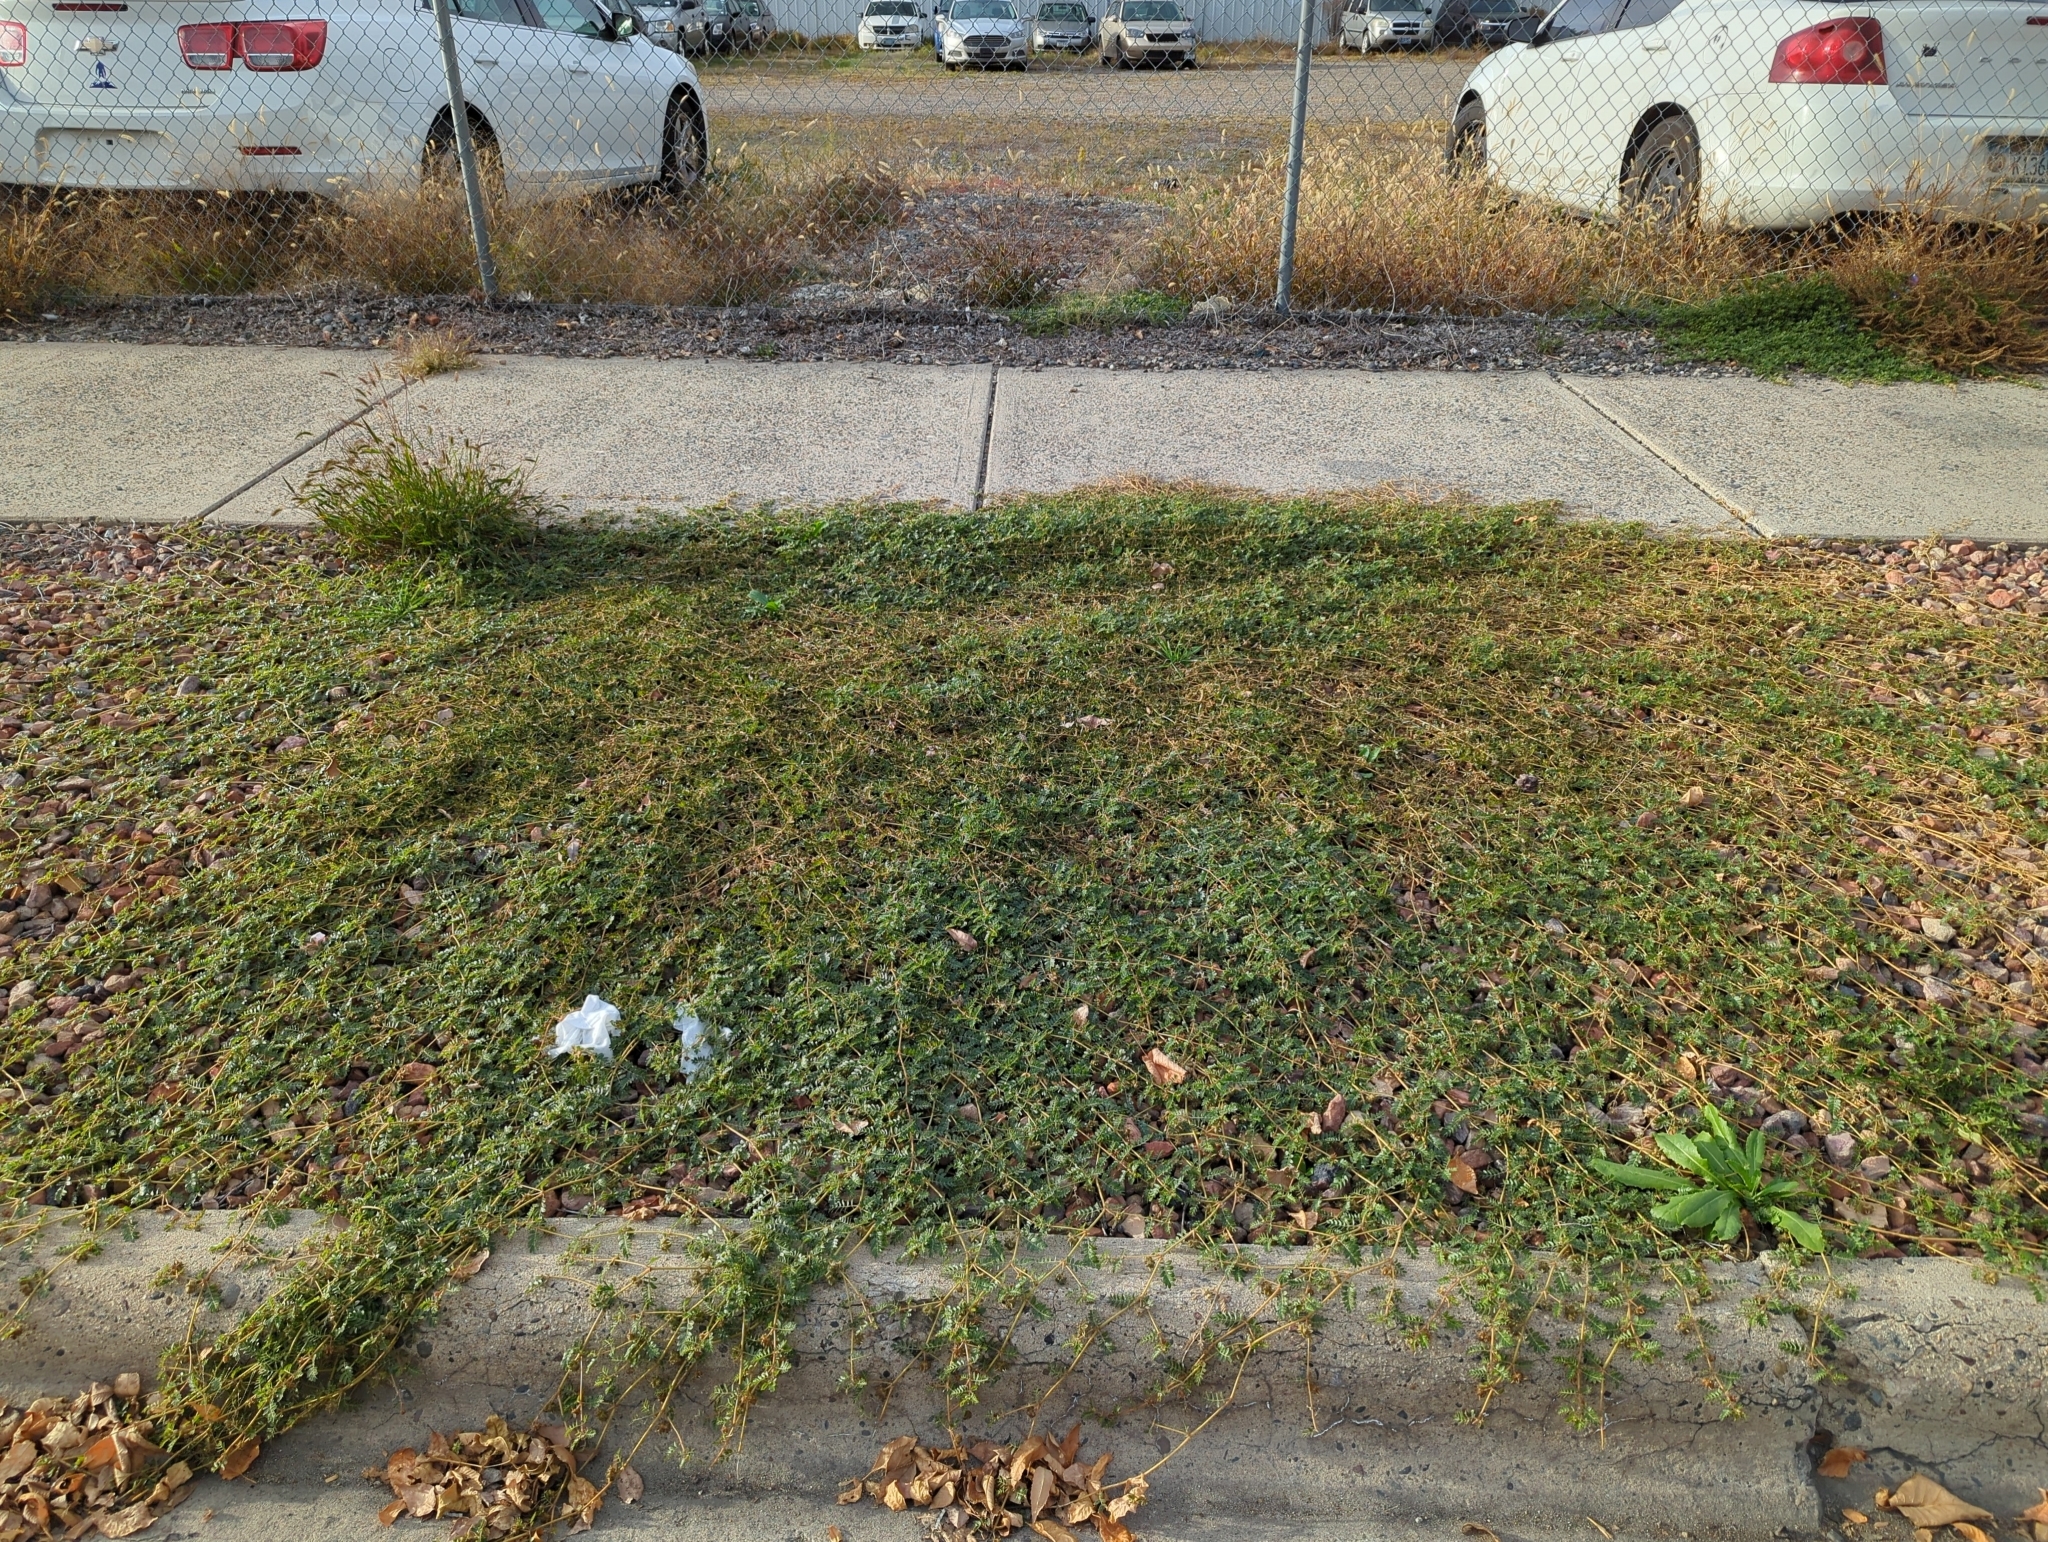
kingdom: Plantae
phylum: Tracheophyta
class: Magnoliopsida
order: Zygophyllales
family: Zygophyllaceae
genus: Tribulus
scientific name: Tribulus terrestris
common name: Puncturevine
